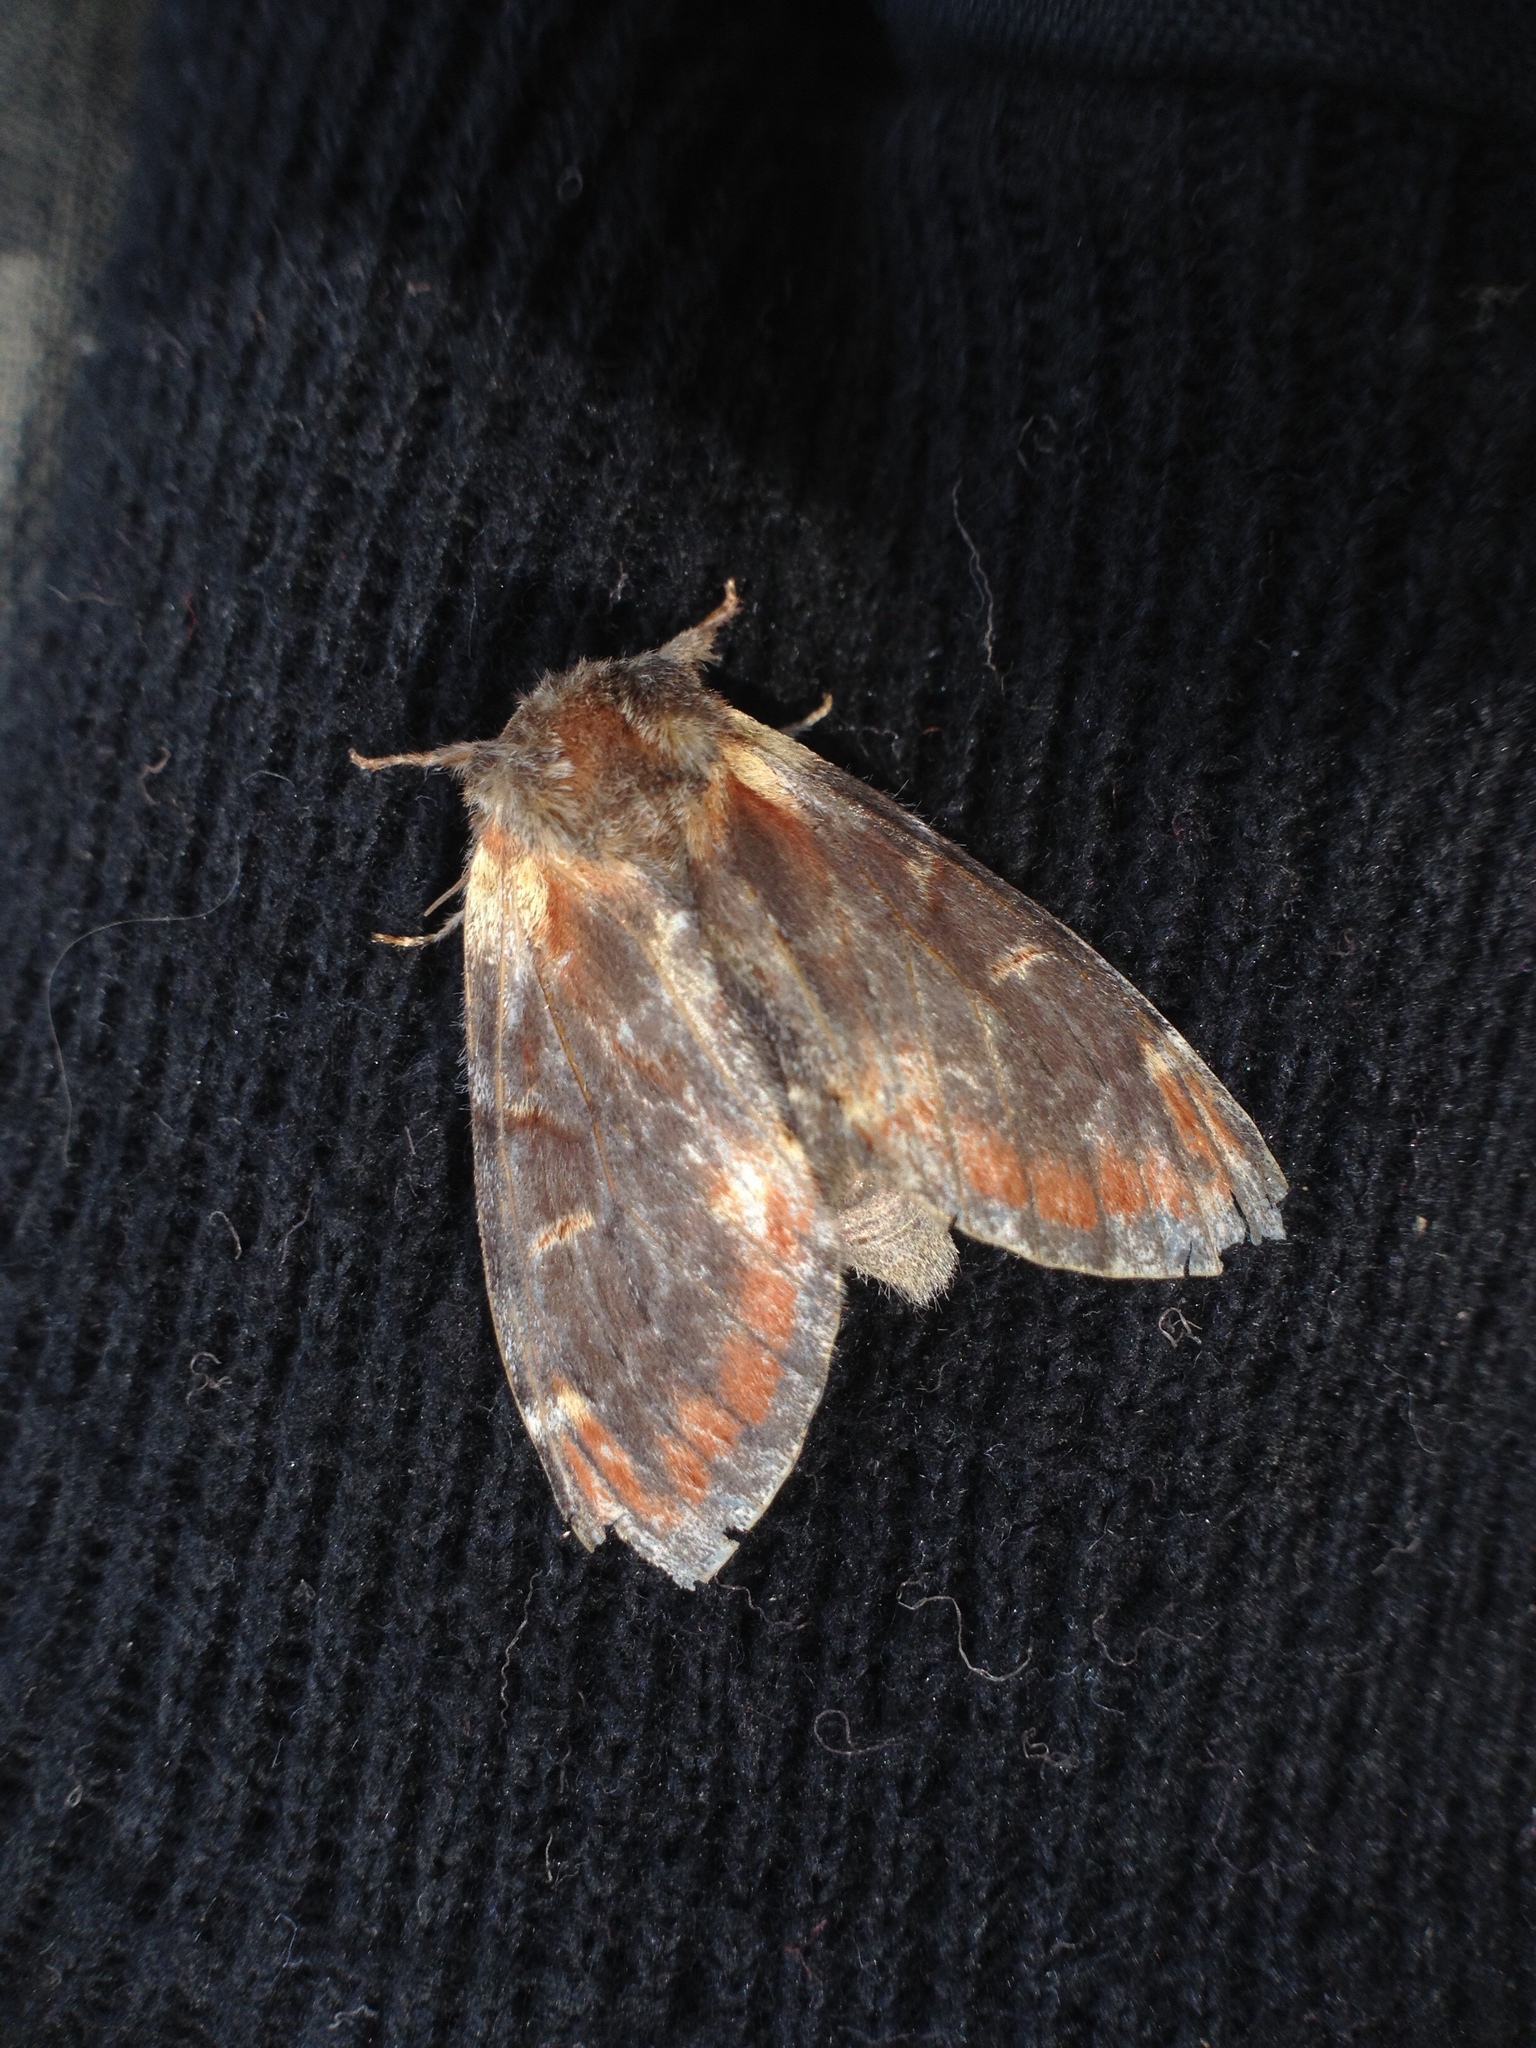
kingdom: Animalia
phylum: Arthropoda
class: Insecta
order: Lepidoptera
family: Notodontidae
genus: Notodonta
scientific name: Notodonta dromedarius
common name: Iron prominent
